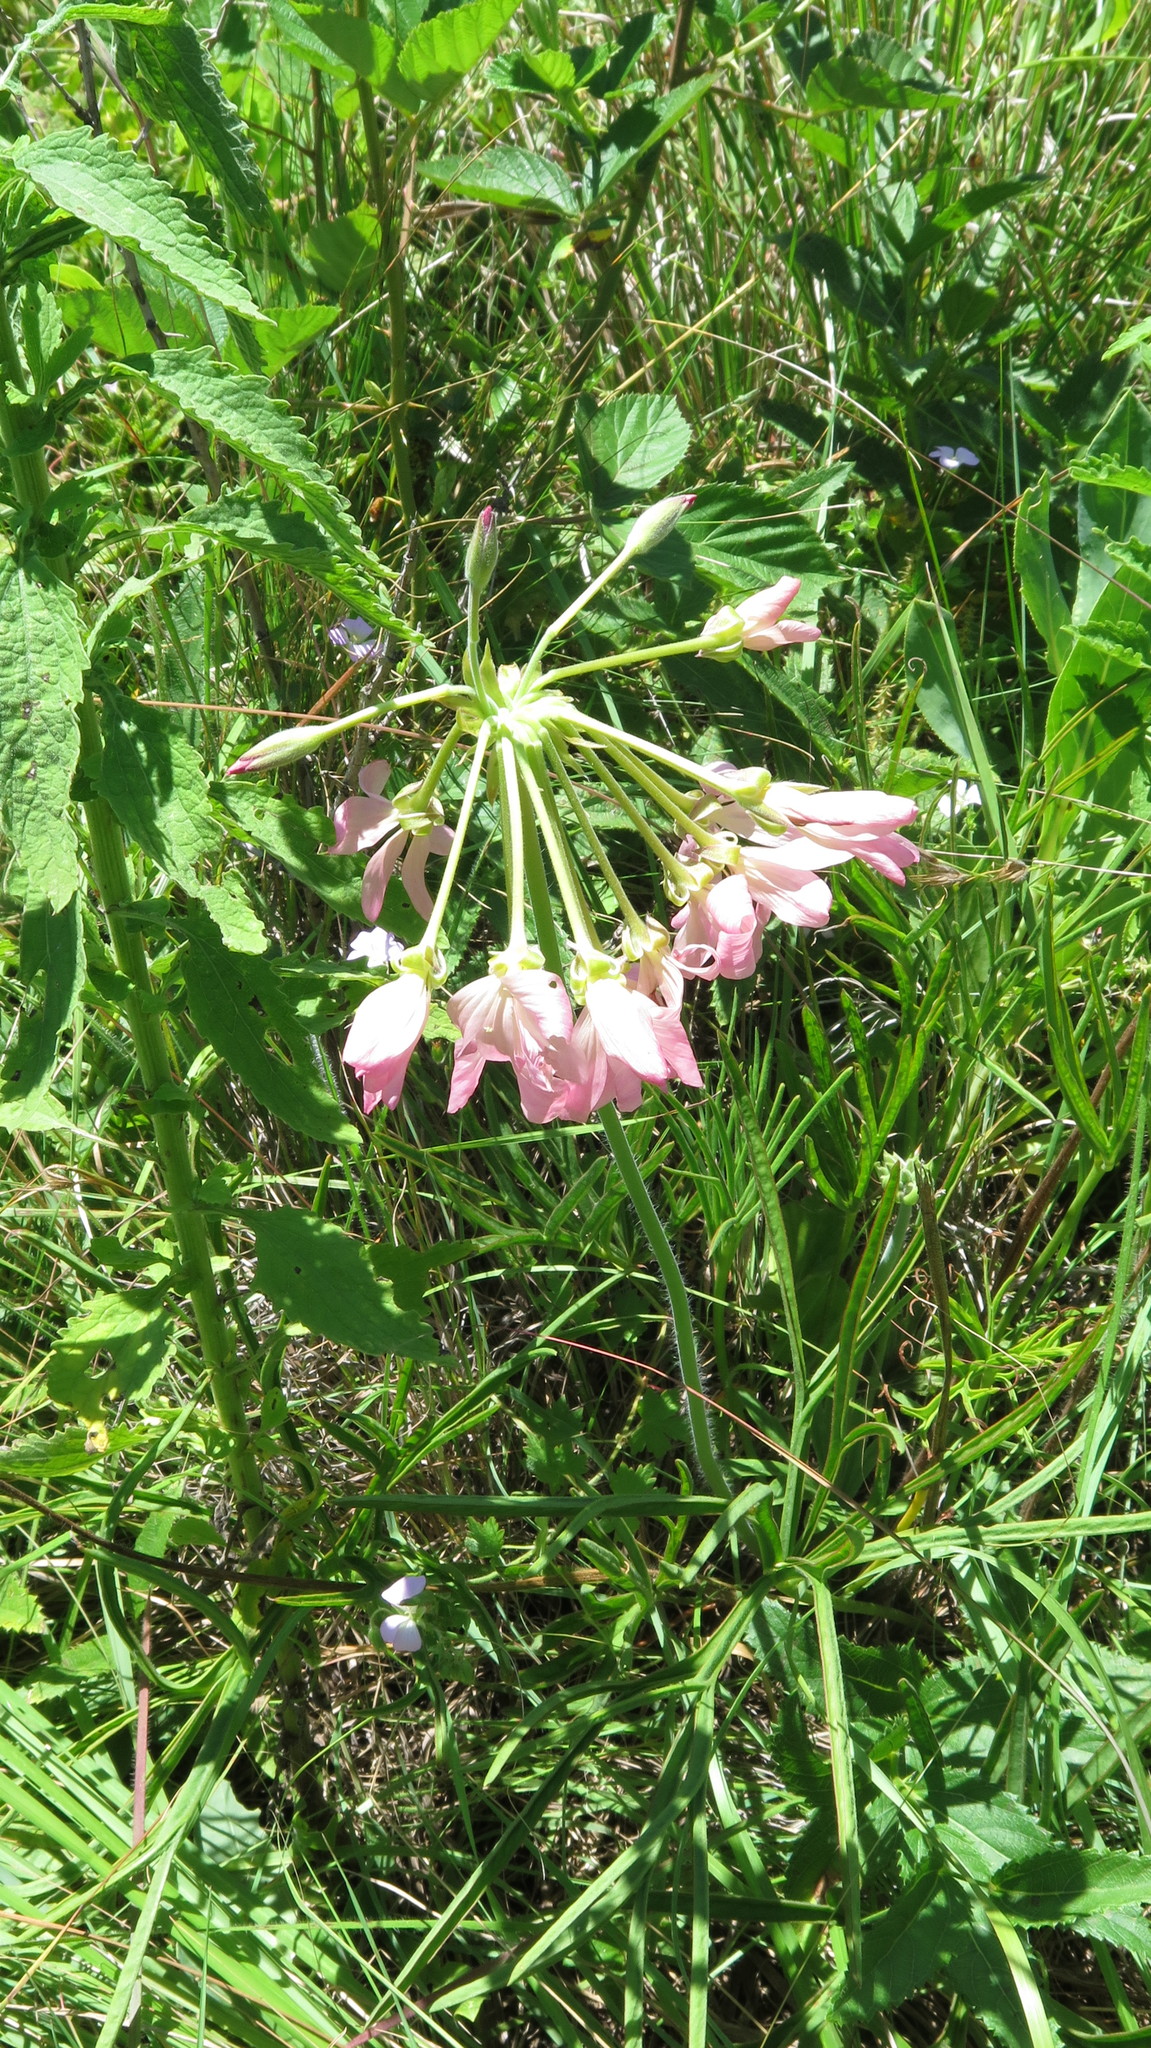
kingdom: Plantae
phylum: Tracheophyta
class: Magnoliopsida
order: Geraniales
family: Geraniaceae
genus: Pelargonium
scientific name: Pelargonium luridum
